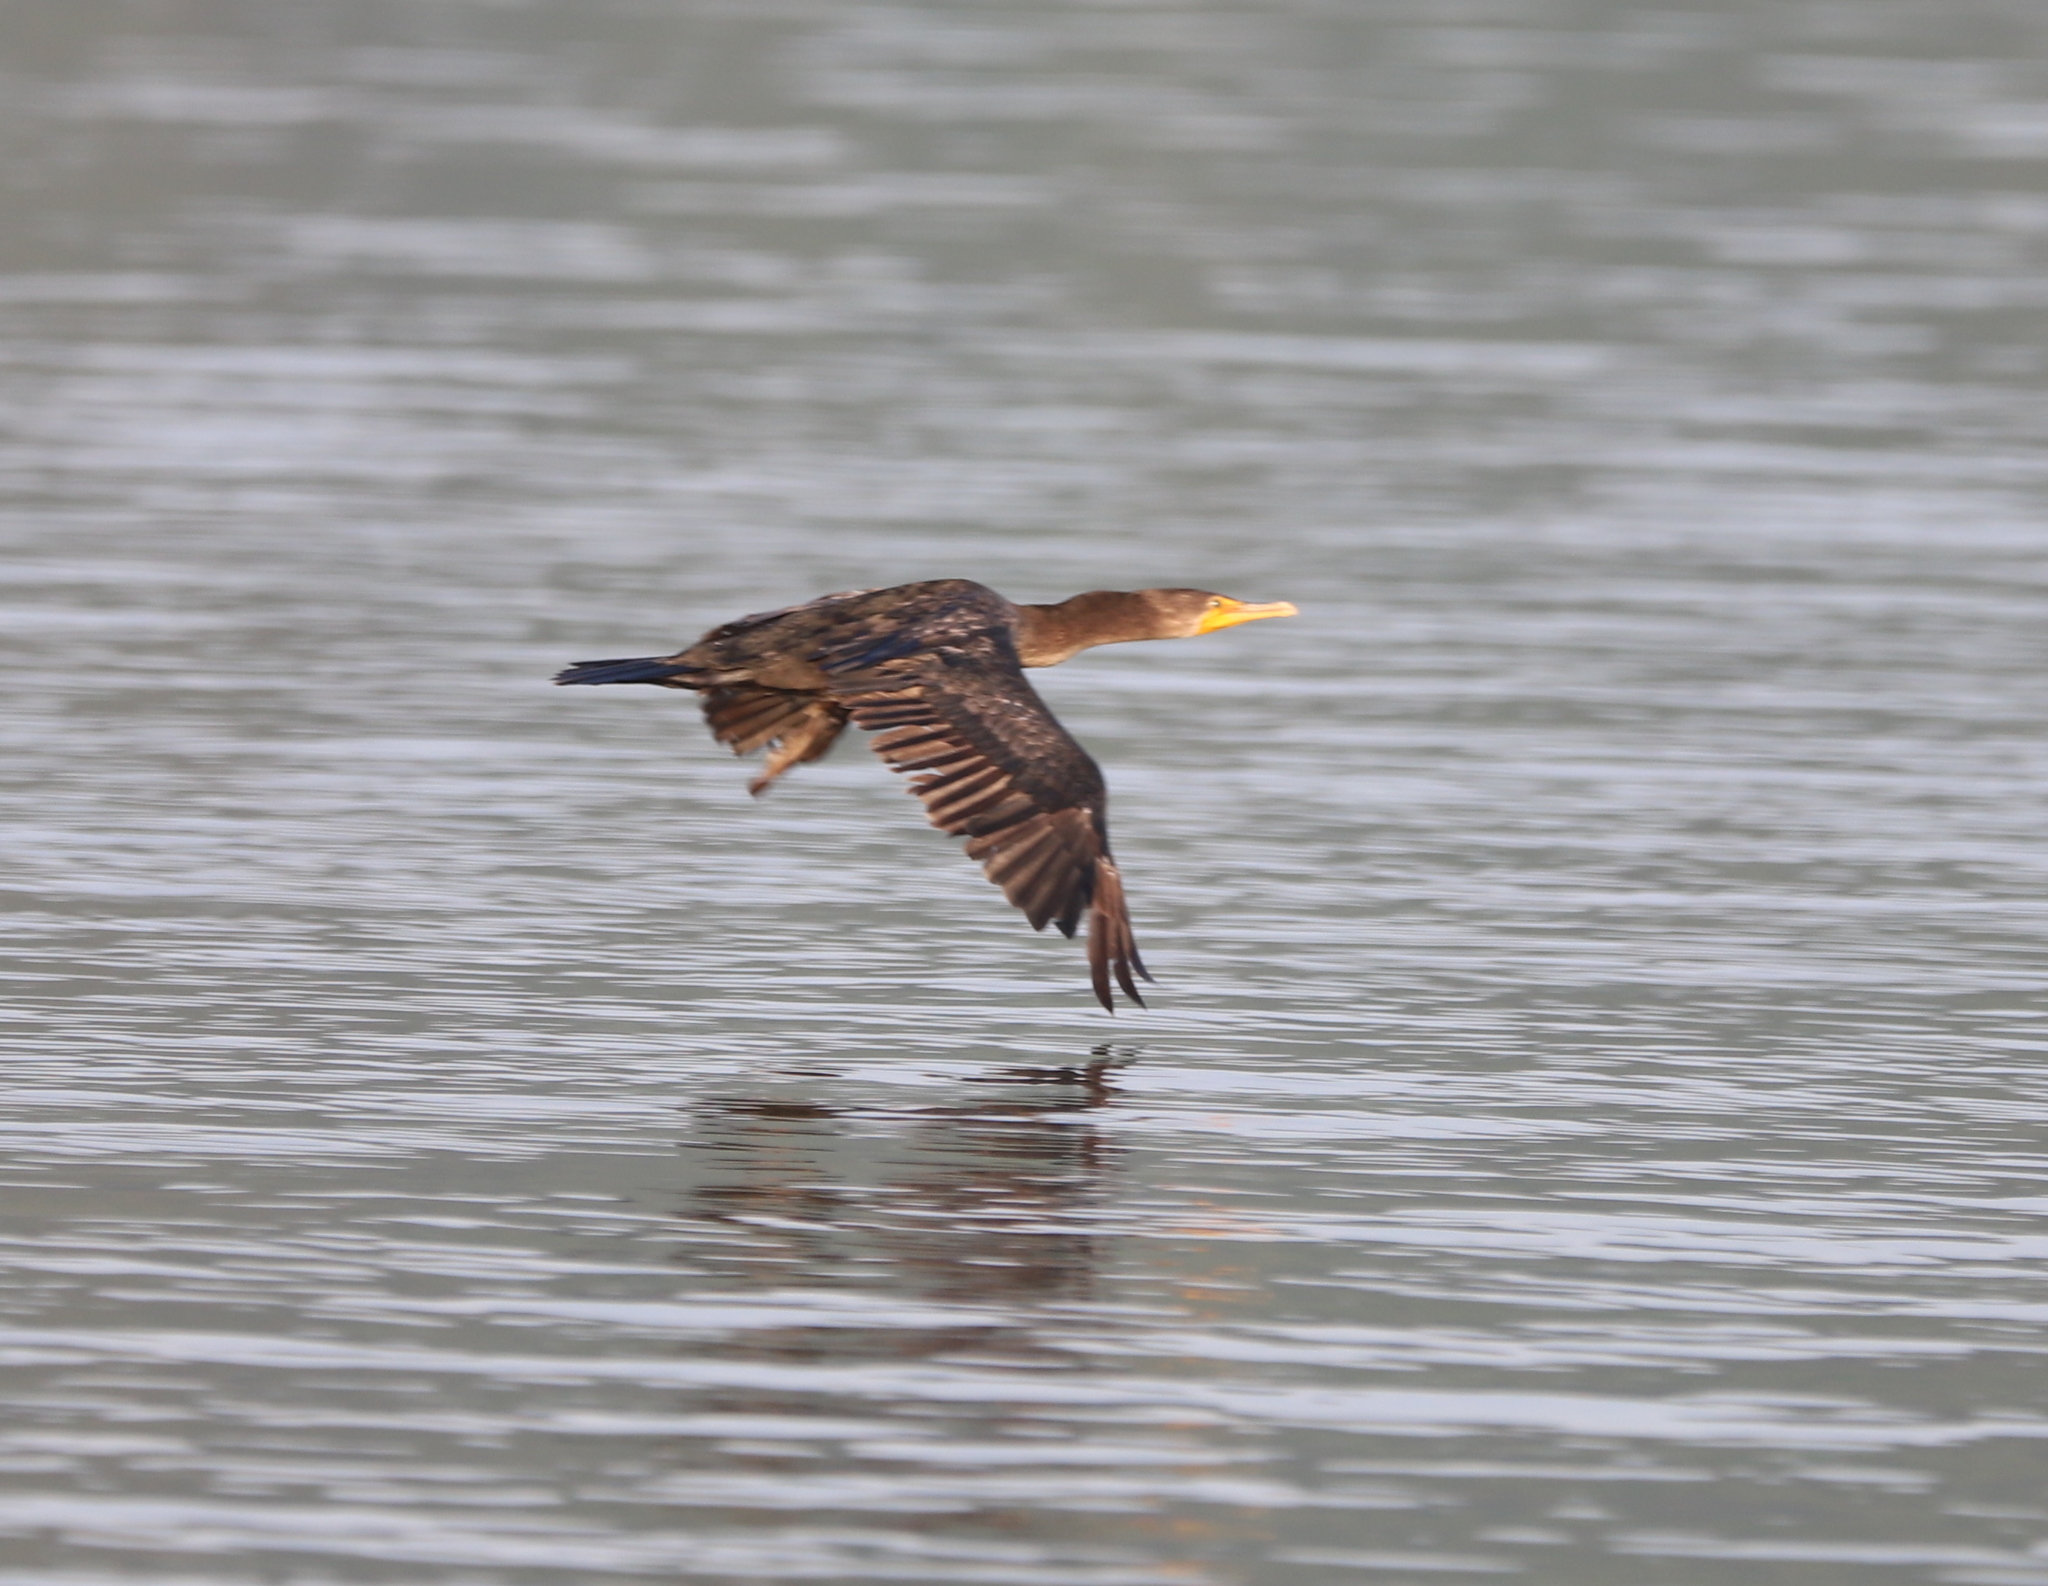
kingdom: Animalia
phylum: Chordata
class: Aves
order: Suliformes
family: Phalacrocoracidae
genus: Phalacrocorax
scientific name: Phalacrocorax auritus
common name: Double-crested cormorant
